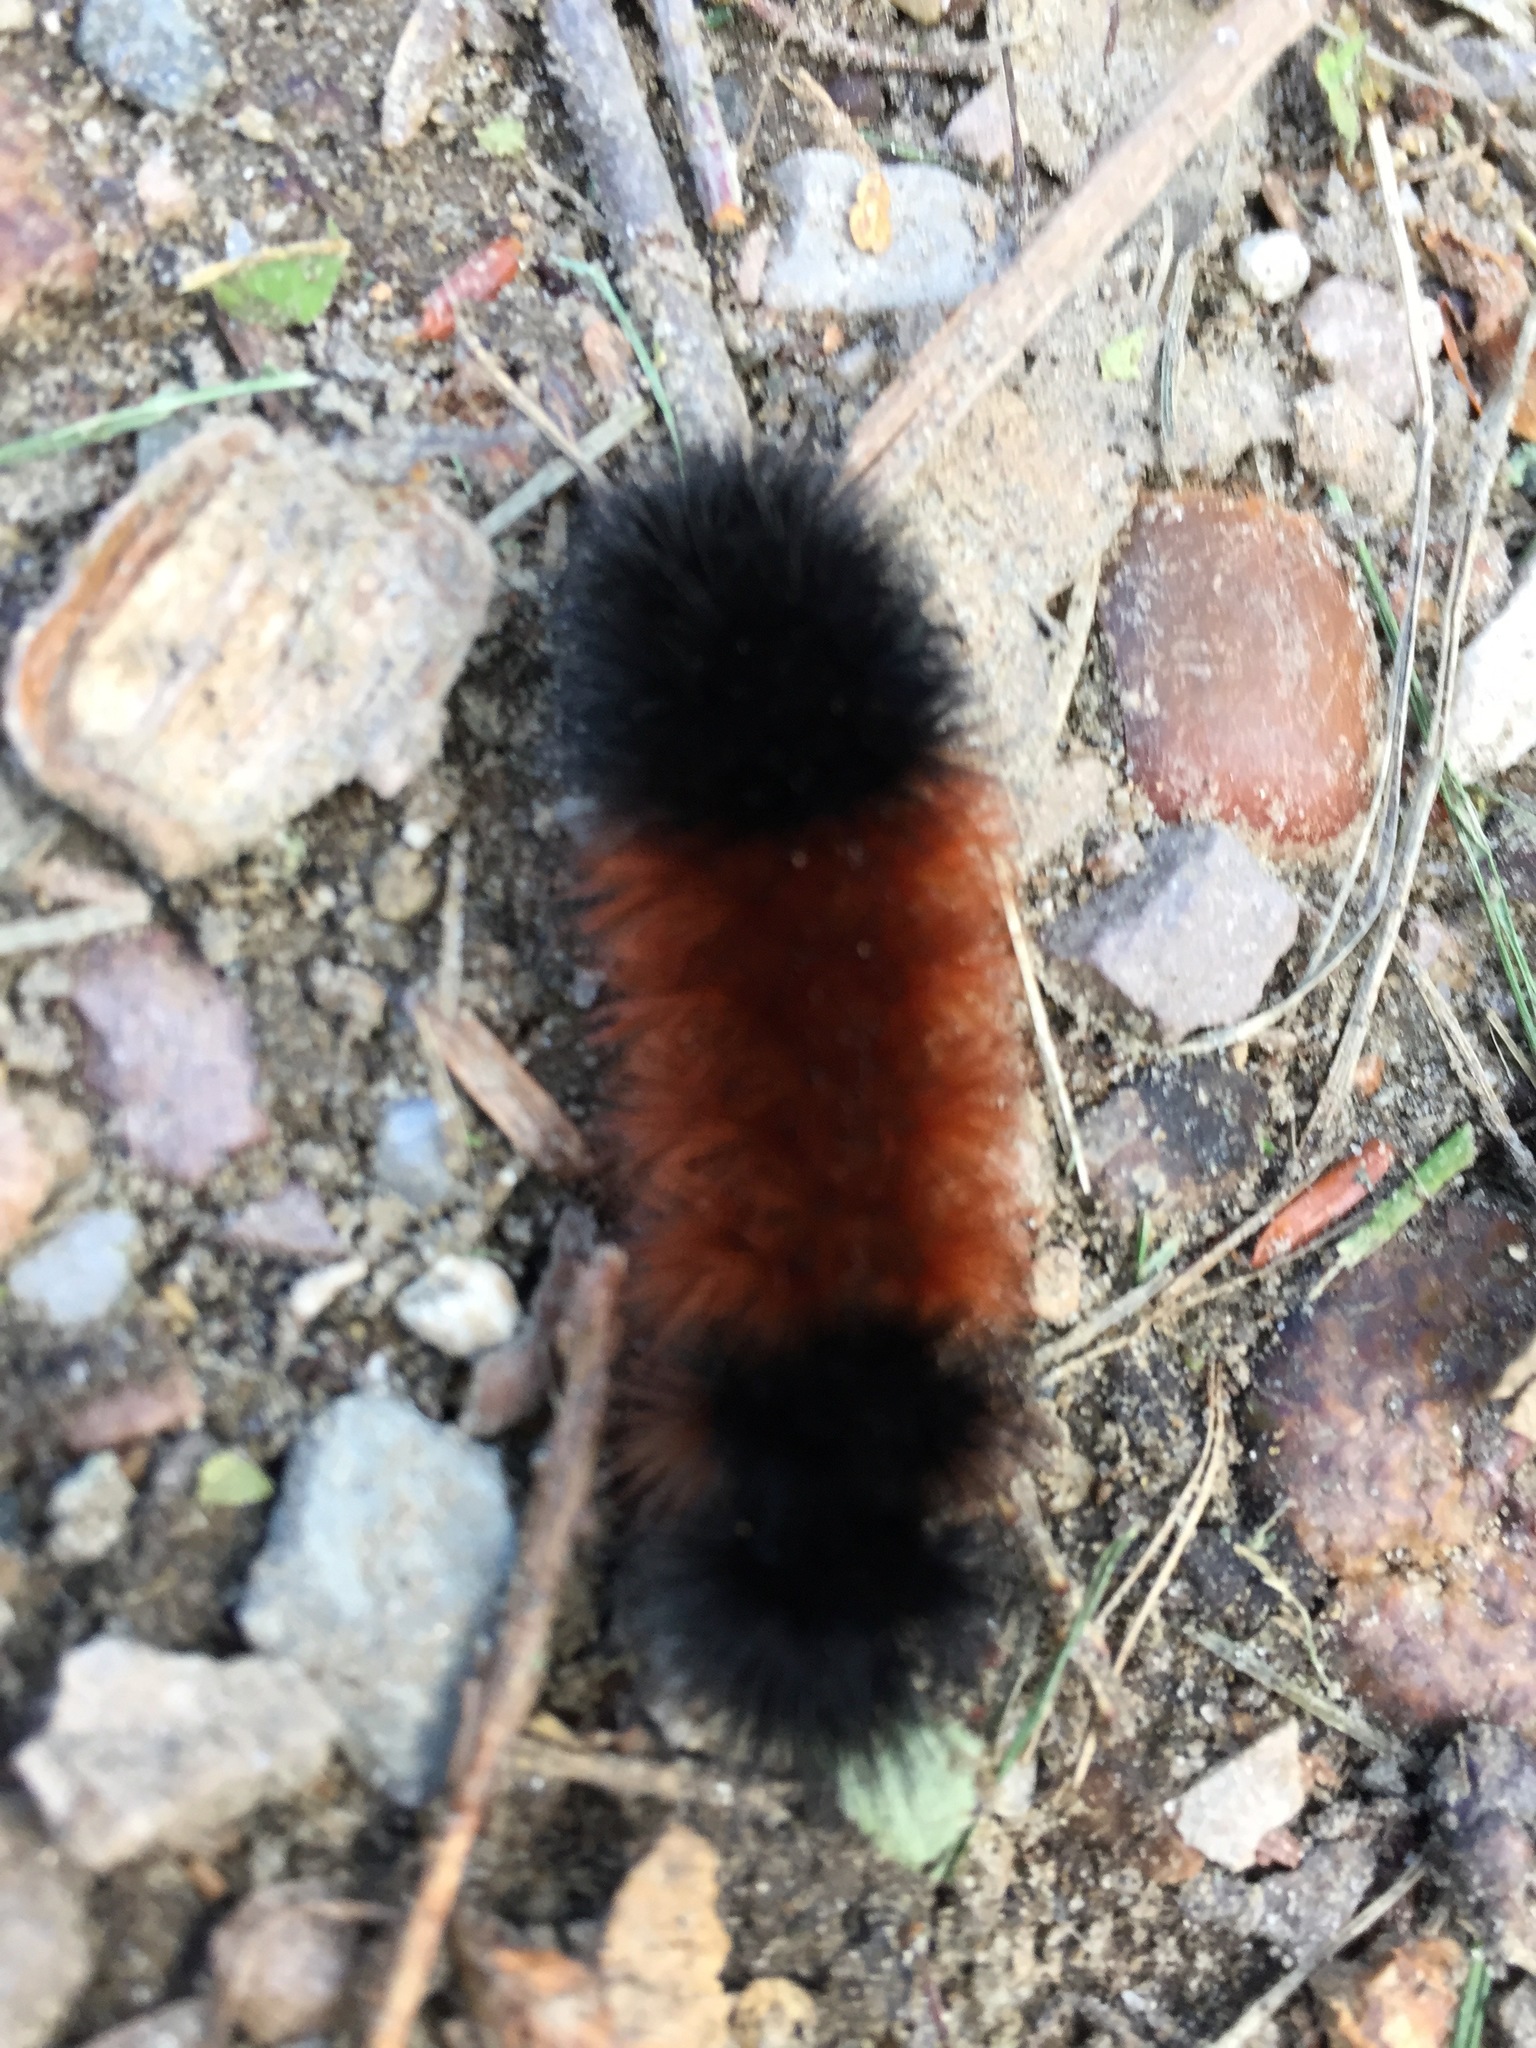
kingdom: Animalia
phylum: Arthropoda
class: Insecta
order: Lepidoptera
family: Erebidae
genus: Pyrrharctia
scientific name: Pyrrharctia isabella
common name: Isabella tiger moth
